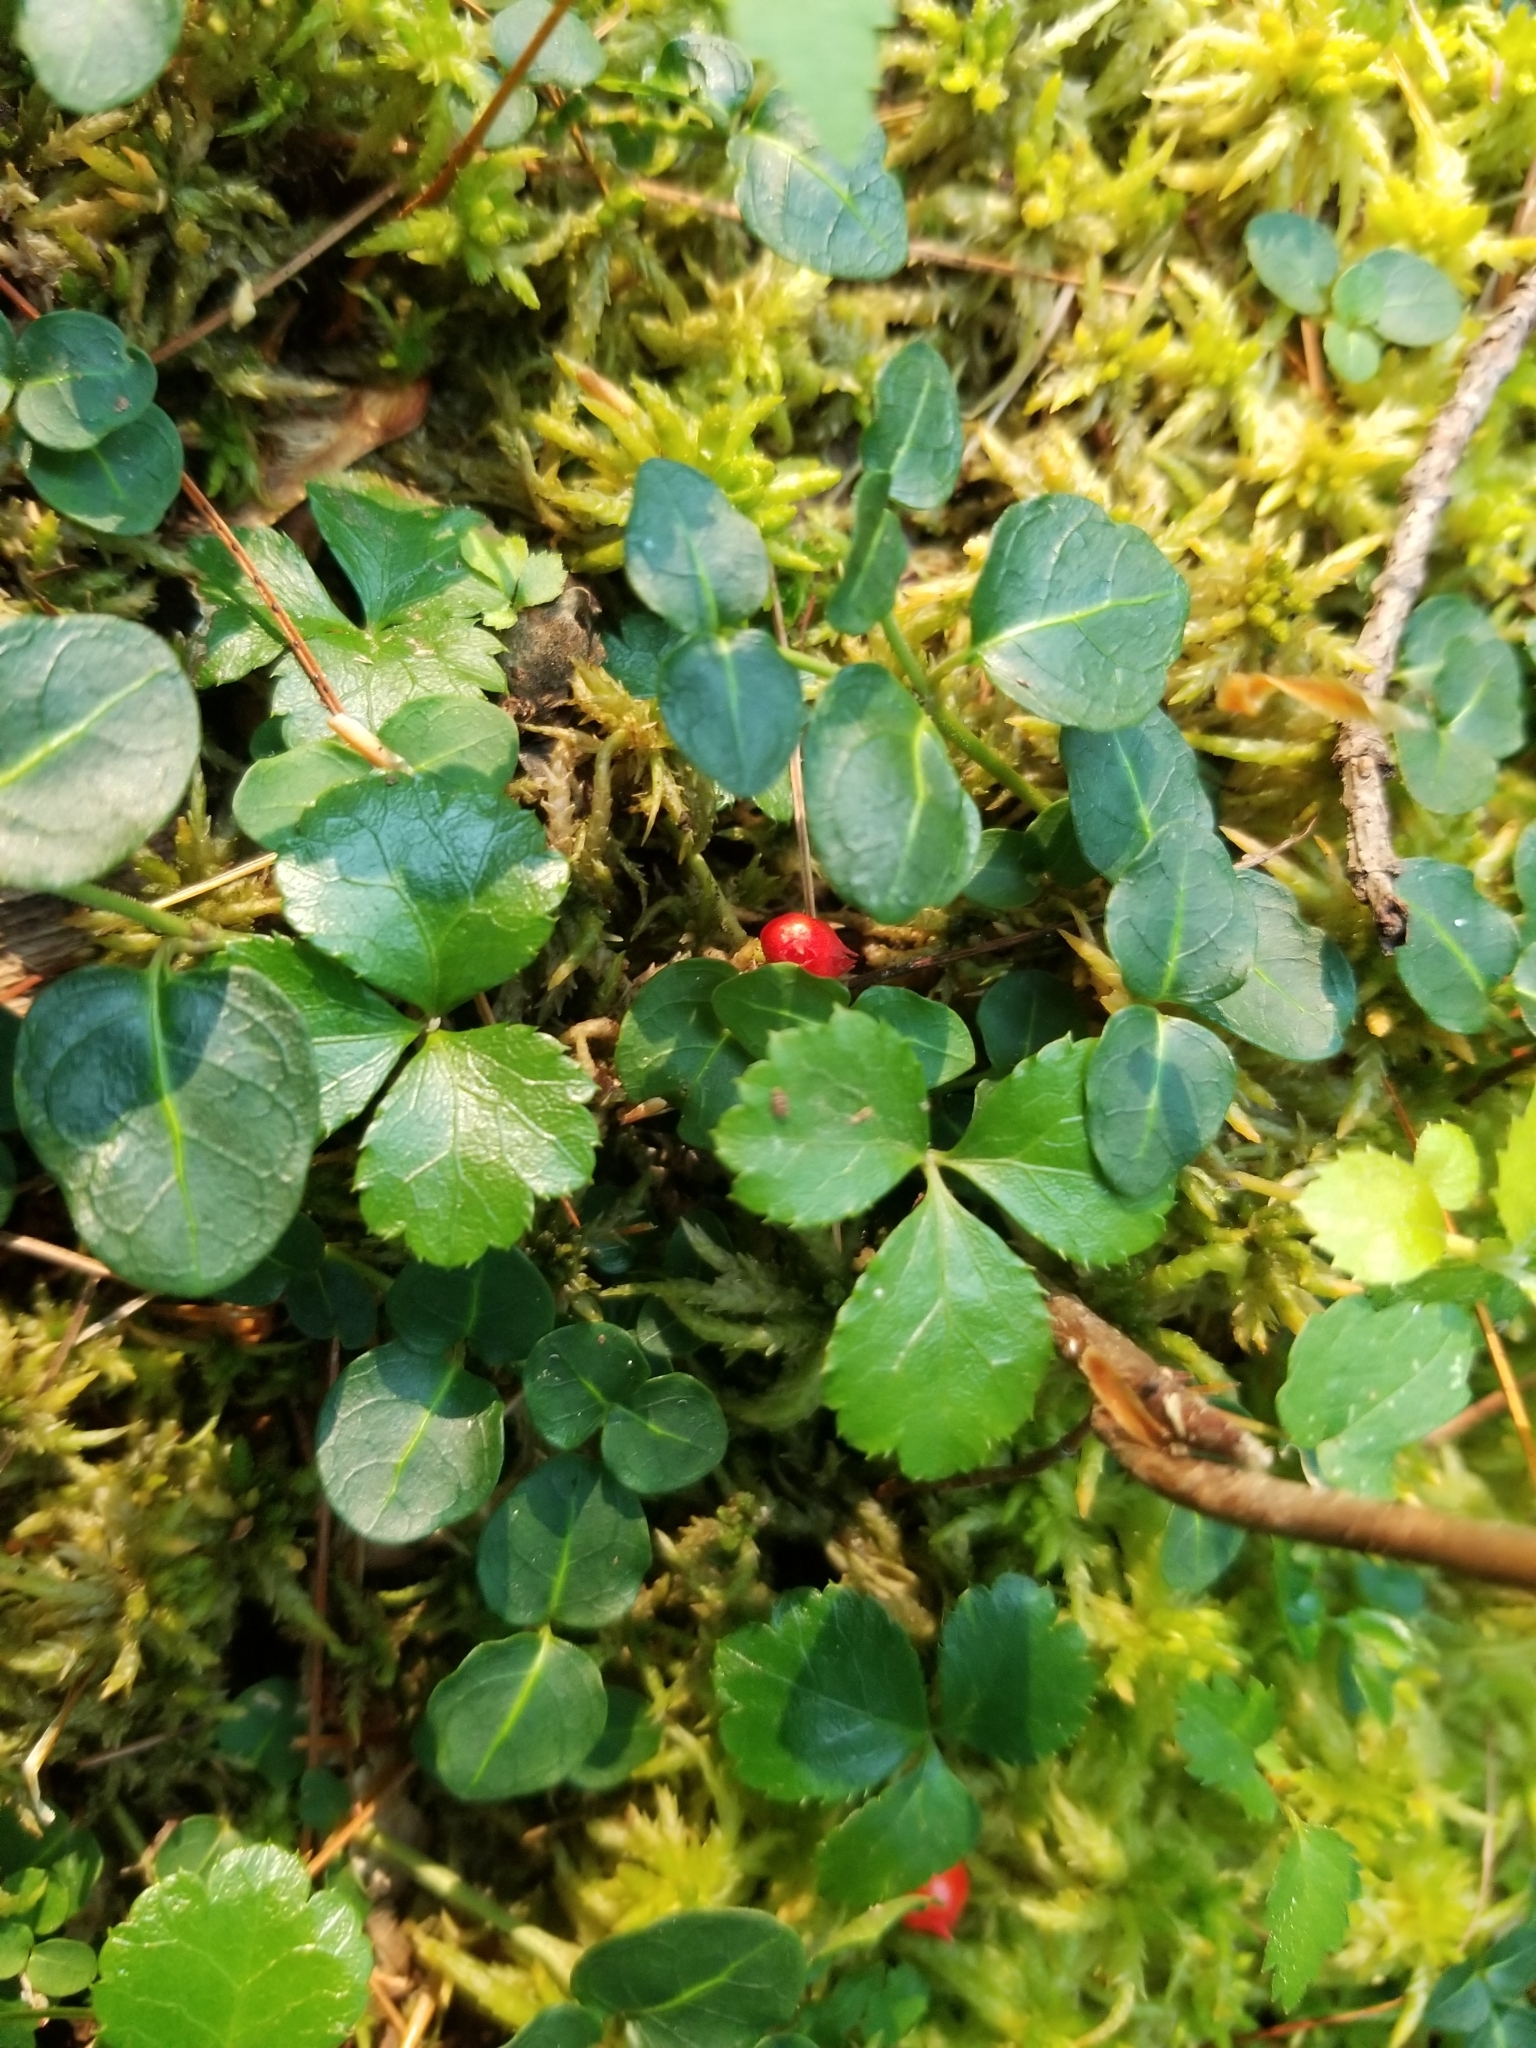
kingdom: Plantae
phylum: Tracheophyta
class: Magnoliopsida
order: Gentianales
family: Rubiaceae
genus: Mitchella
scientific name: Mitchella repens
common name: Partridge-berry
